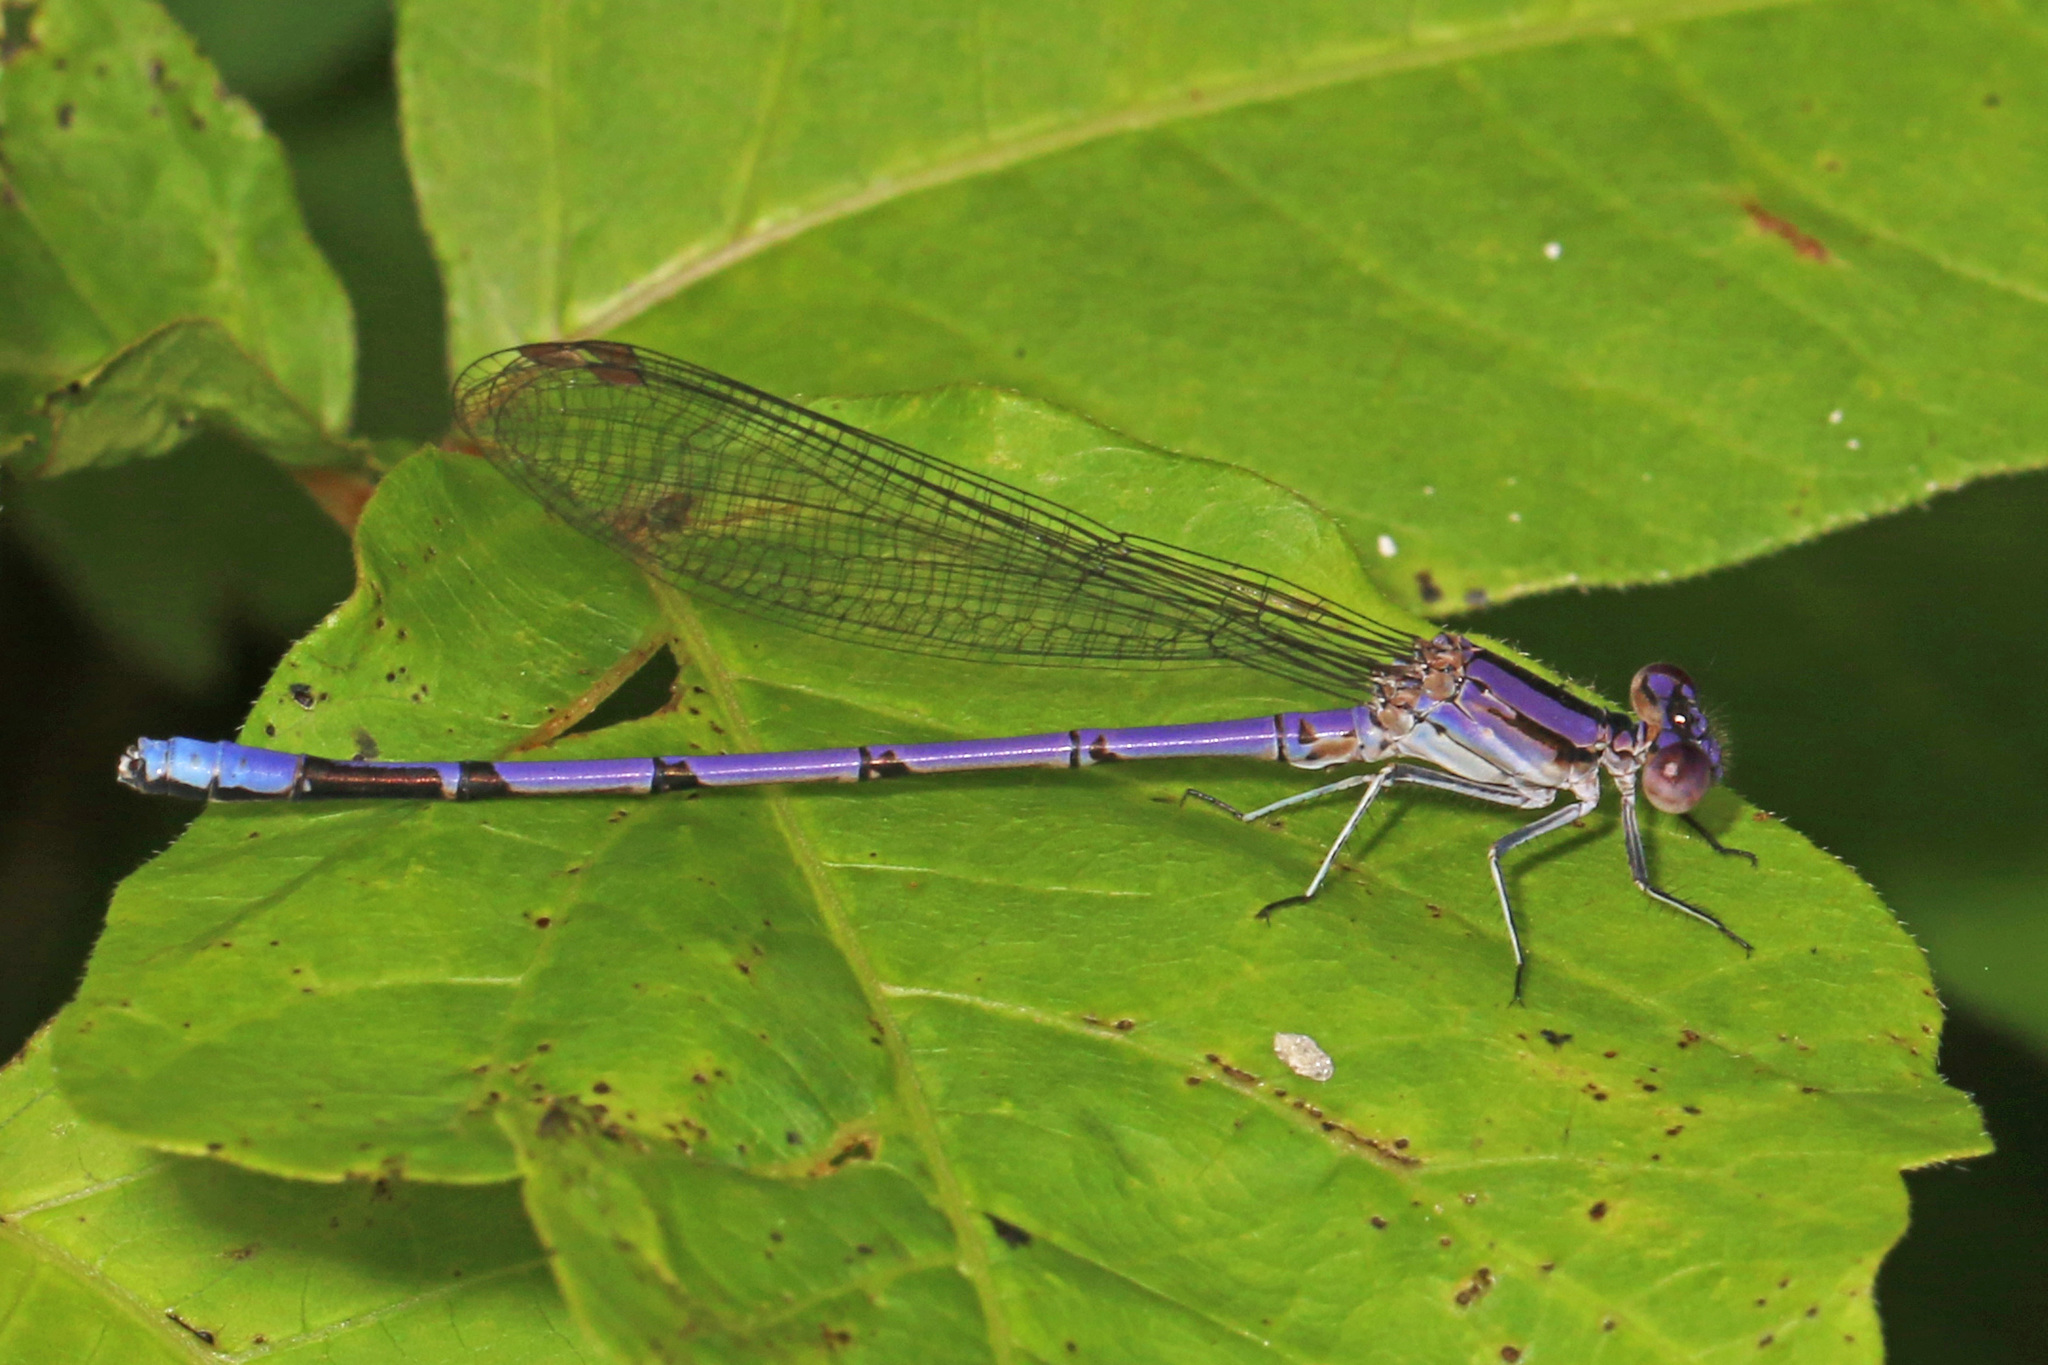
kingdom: Animalia
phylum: Arthropoda
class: Insecta
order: Odonata
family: Coenagrionidae
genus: Argia
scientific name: Argia fumipennis
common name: Variable dancer
